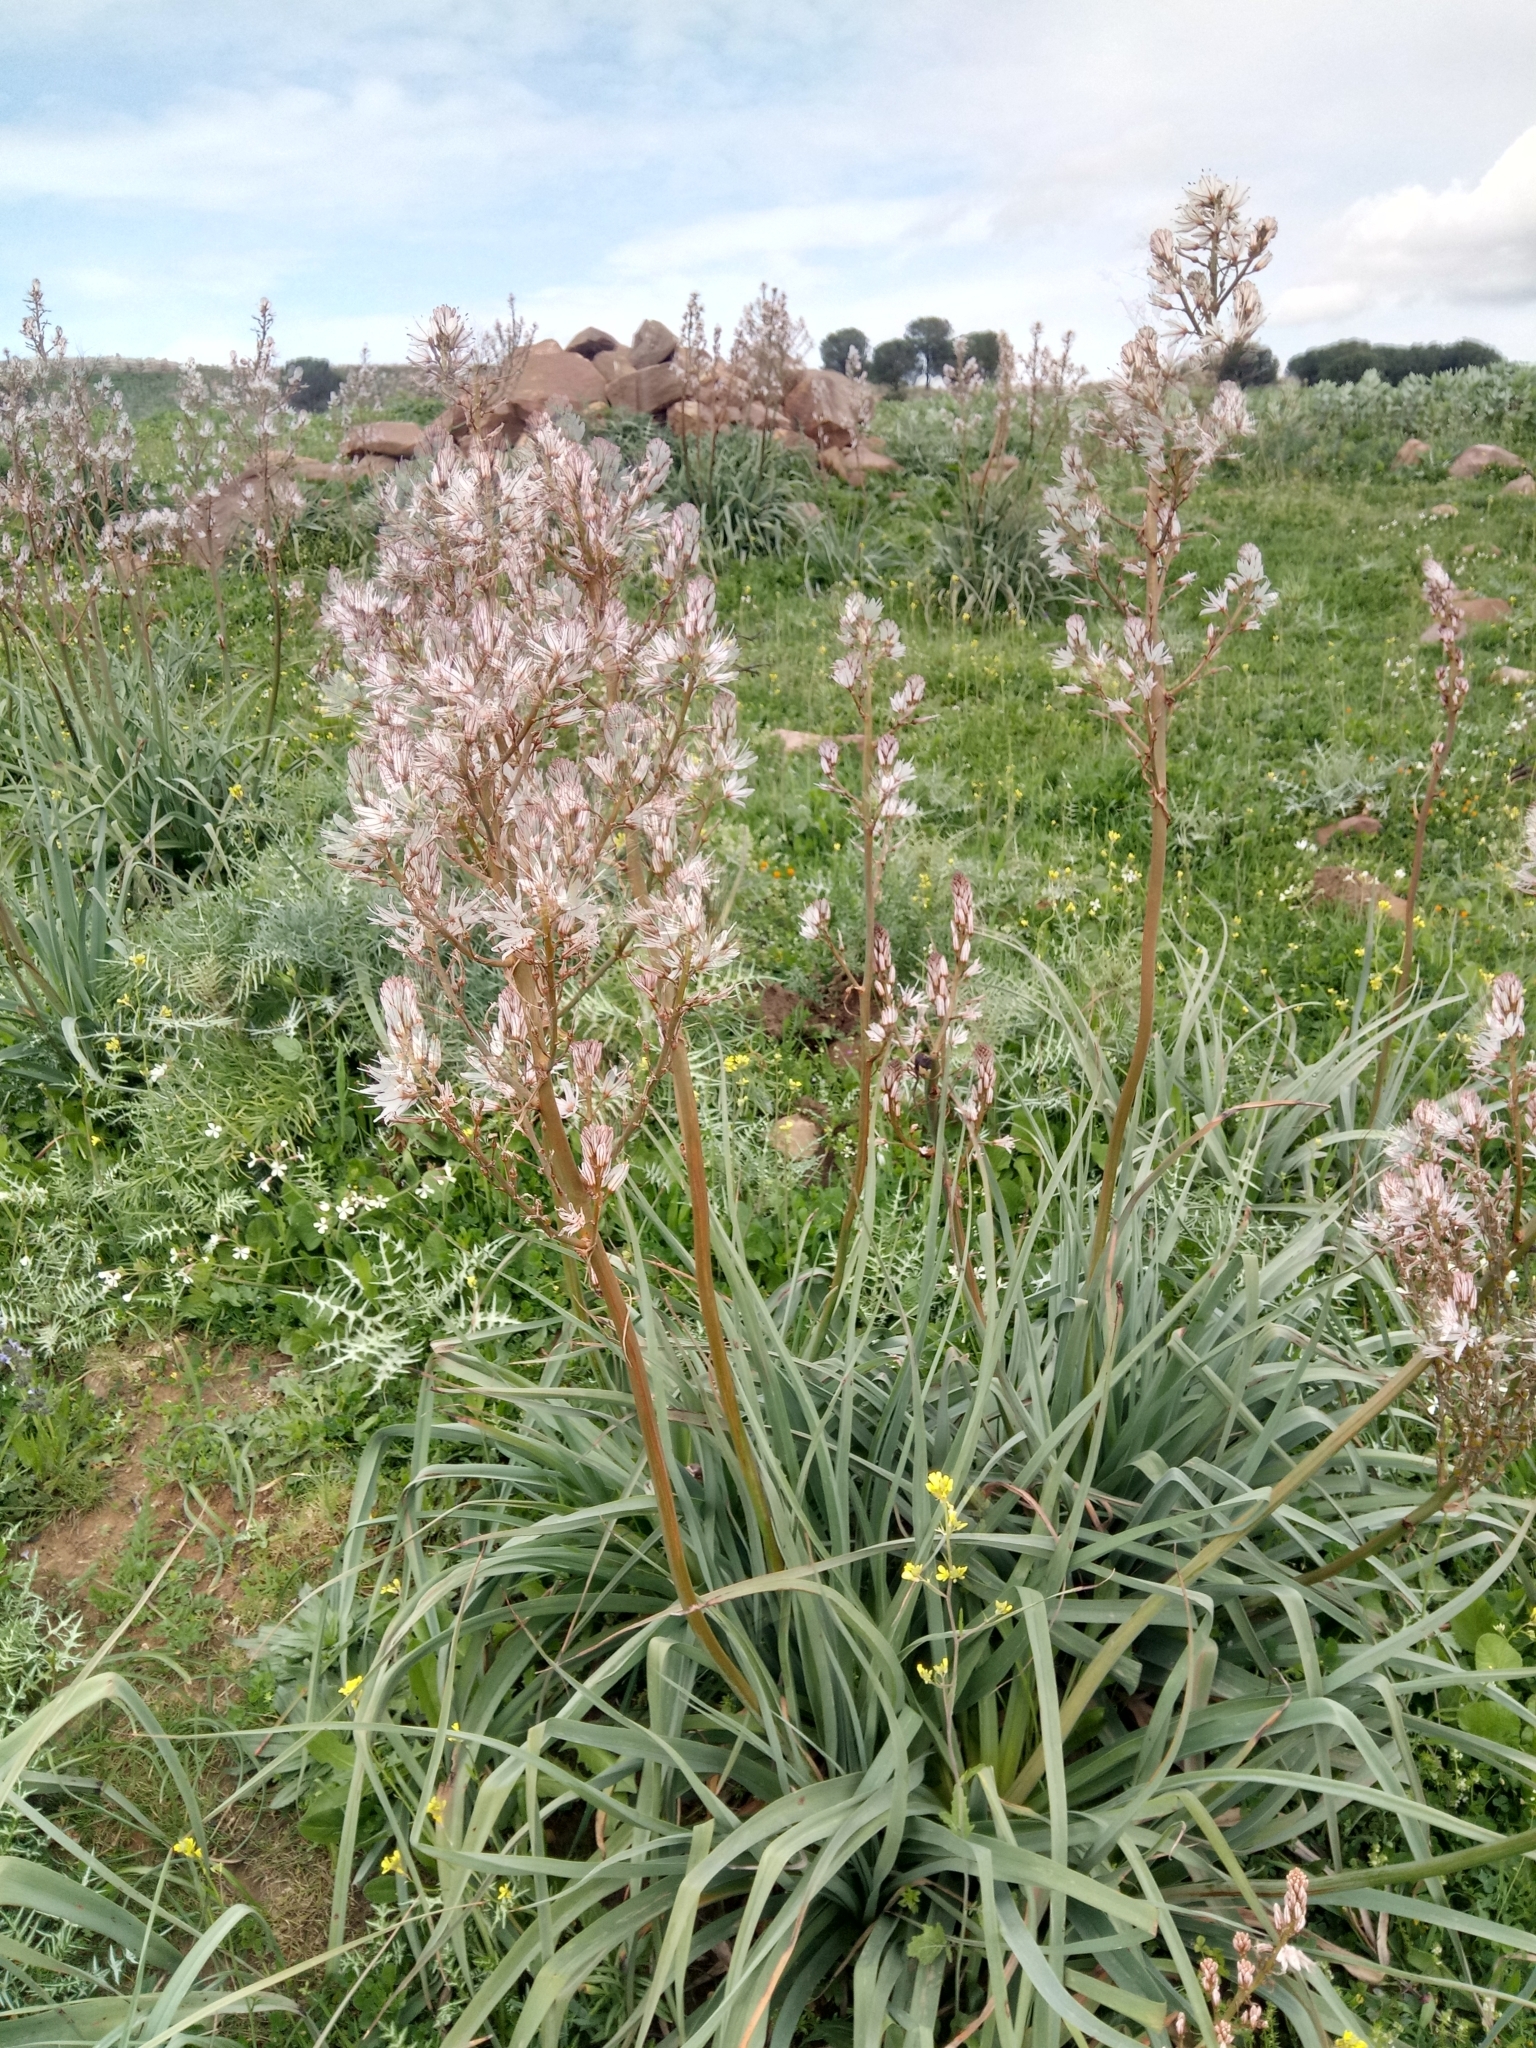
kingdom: Plantae
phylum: Tracheophyta
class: Liliopsida
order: Asparagales
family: Asphodelaceae
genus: Asphodelus
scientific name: Asphodelus ramosus
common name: Silverrod
